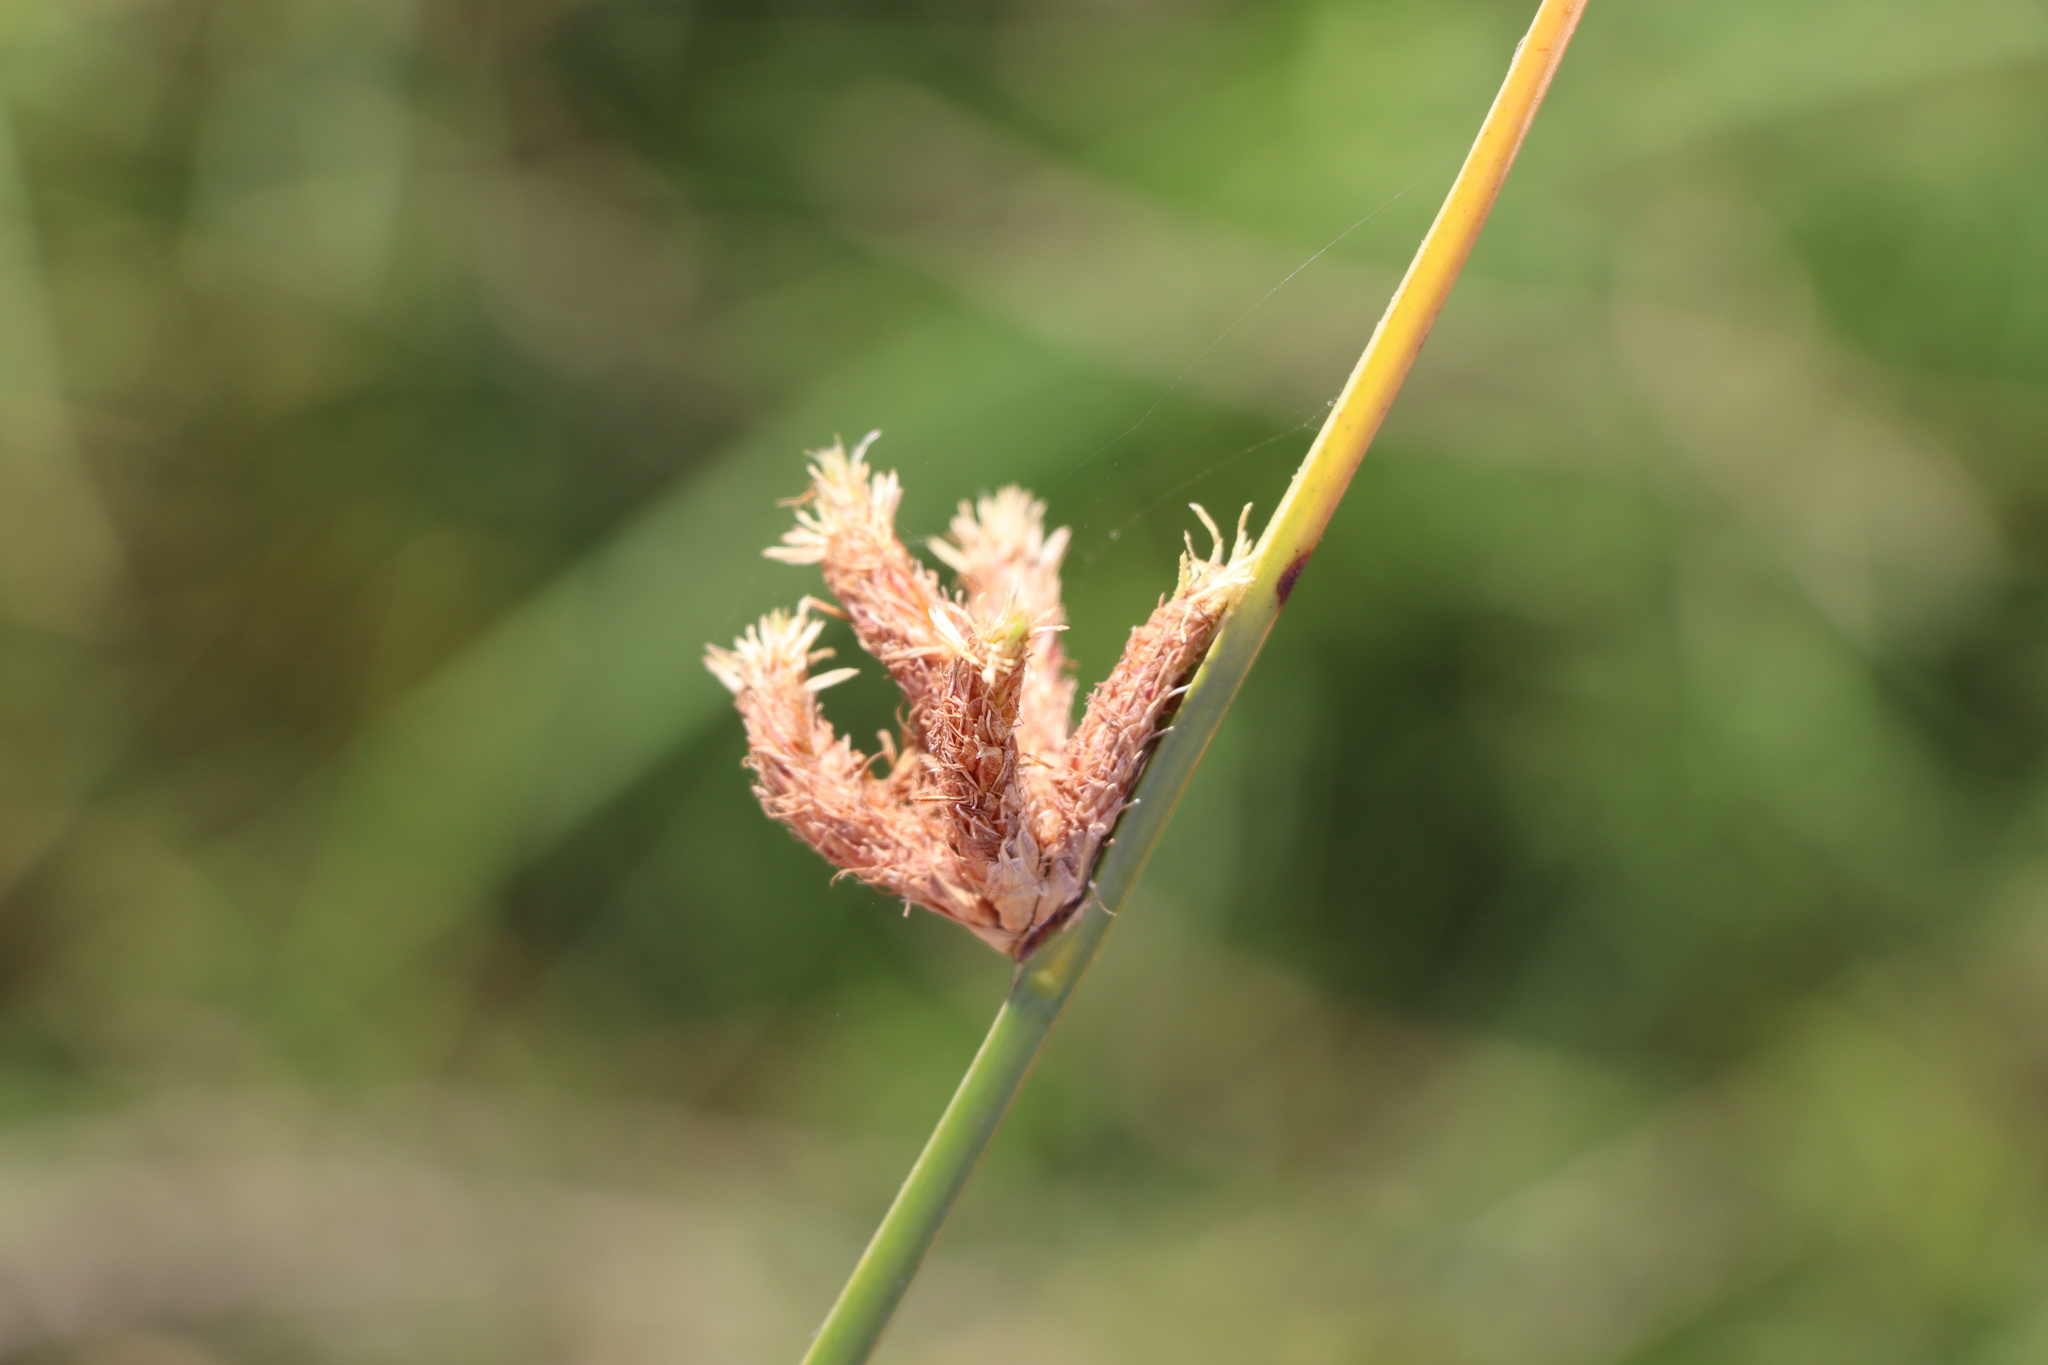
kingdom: Plantae
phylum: Tracheophyta
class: Liliopsida
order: Poales
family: Cyperaceae
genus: Schoenoplectus
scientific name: Schoenoplectus pungens
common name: Sharp club-rush
